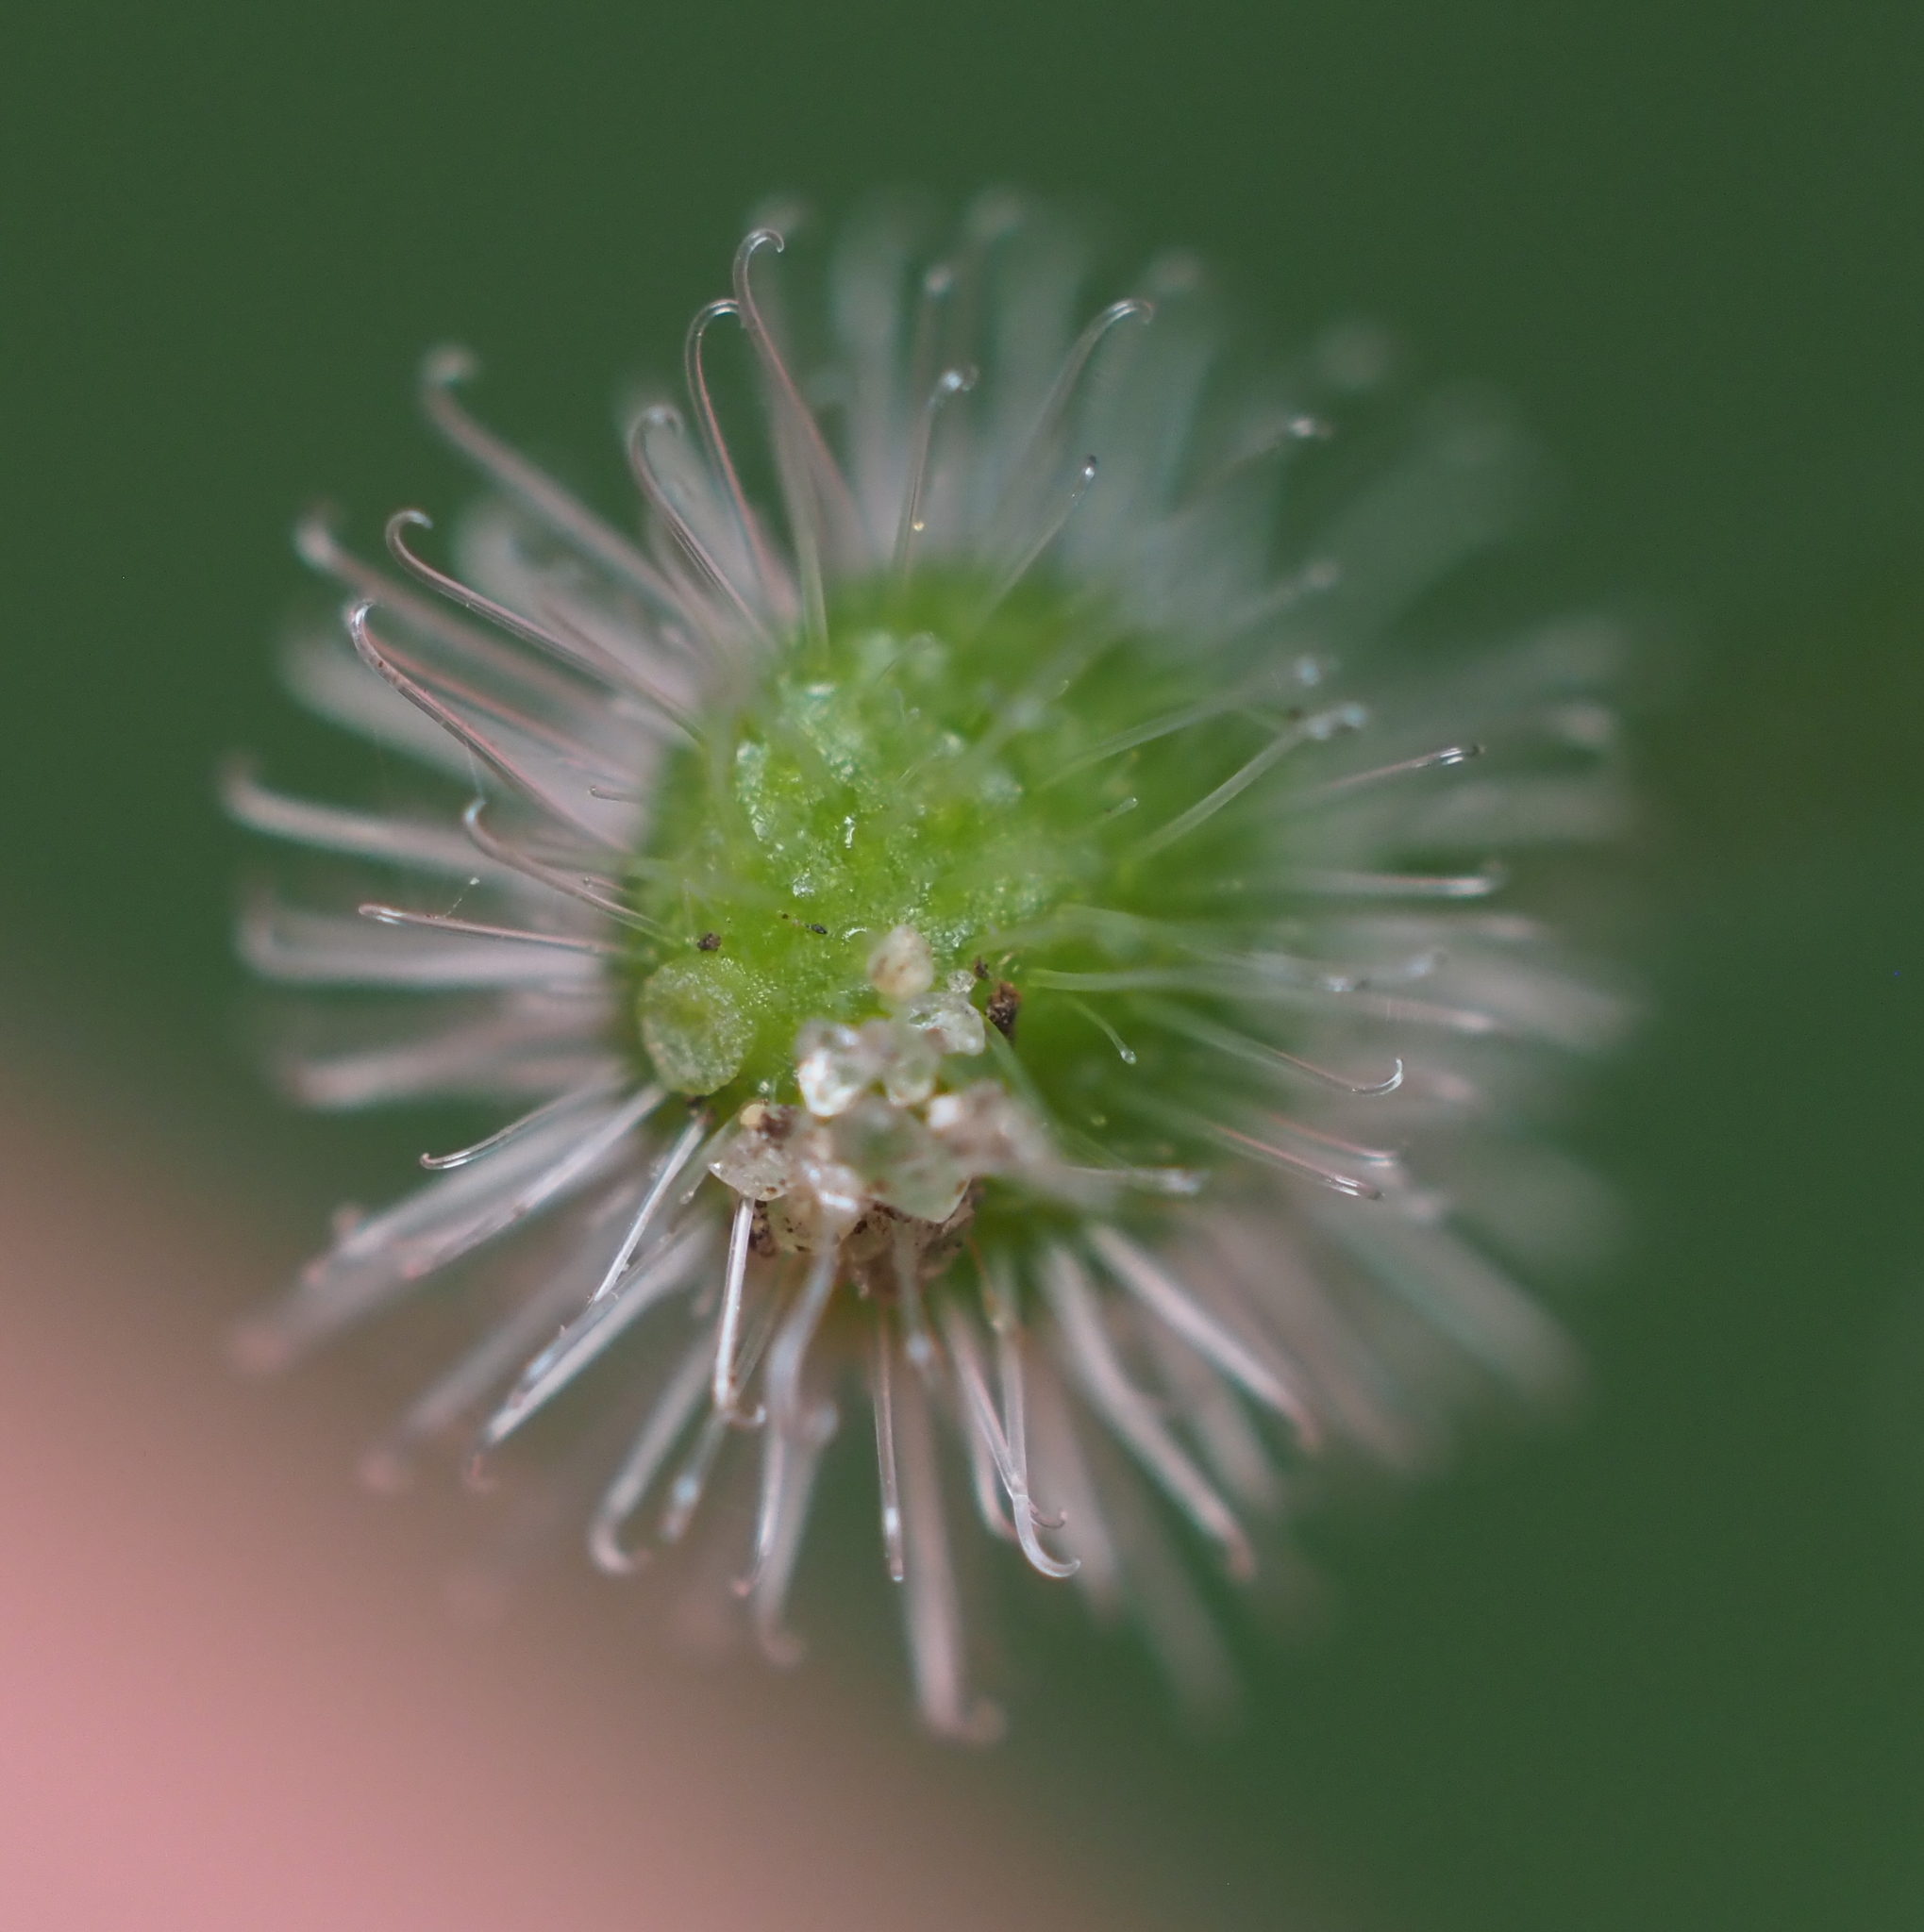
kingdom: Plantae
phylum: Tracheophyta
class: Magnoliopsida
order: Myrtales
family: Onagraceae
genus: Circaea
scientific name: Circaea canadensis
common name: Broad-leaved enchanter's nightshade
